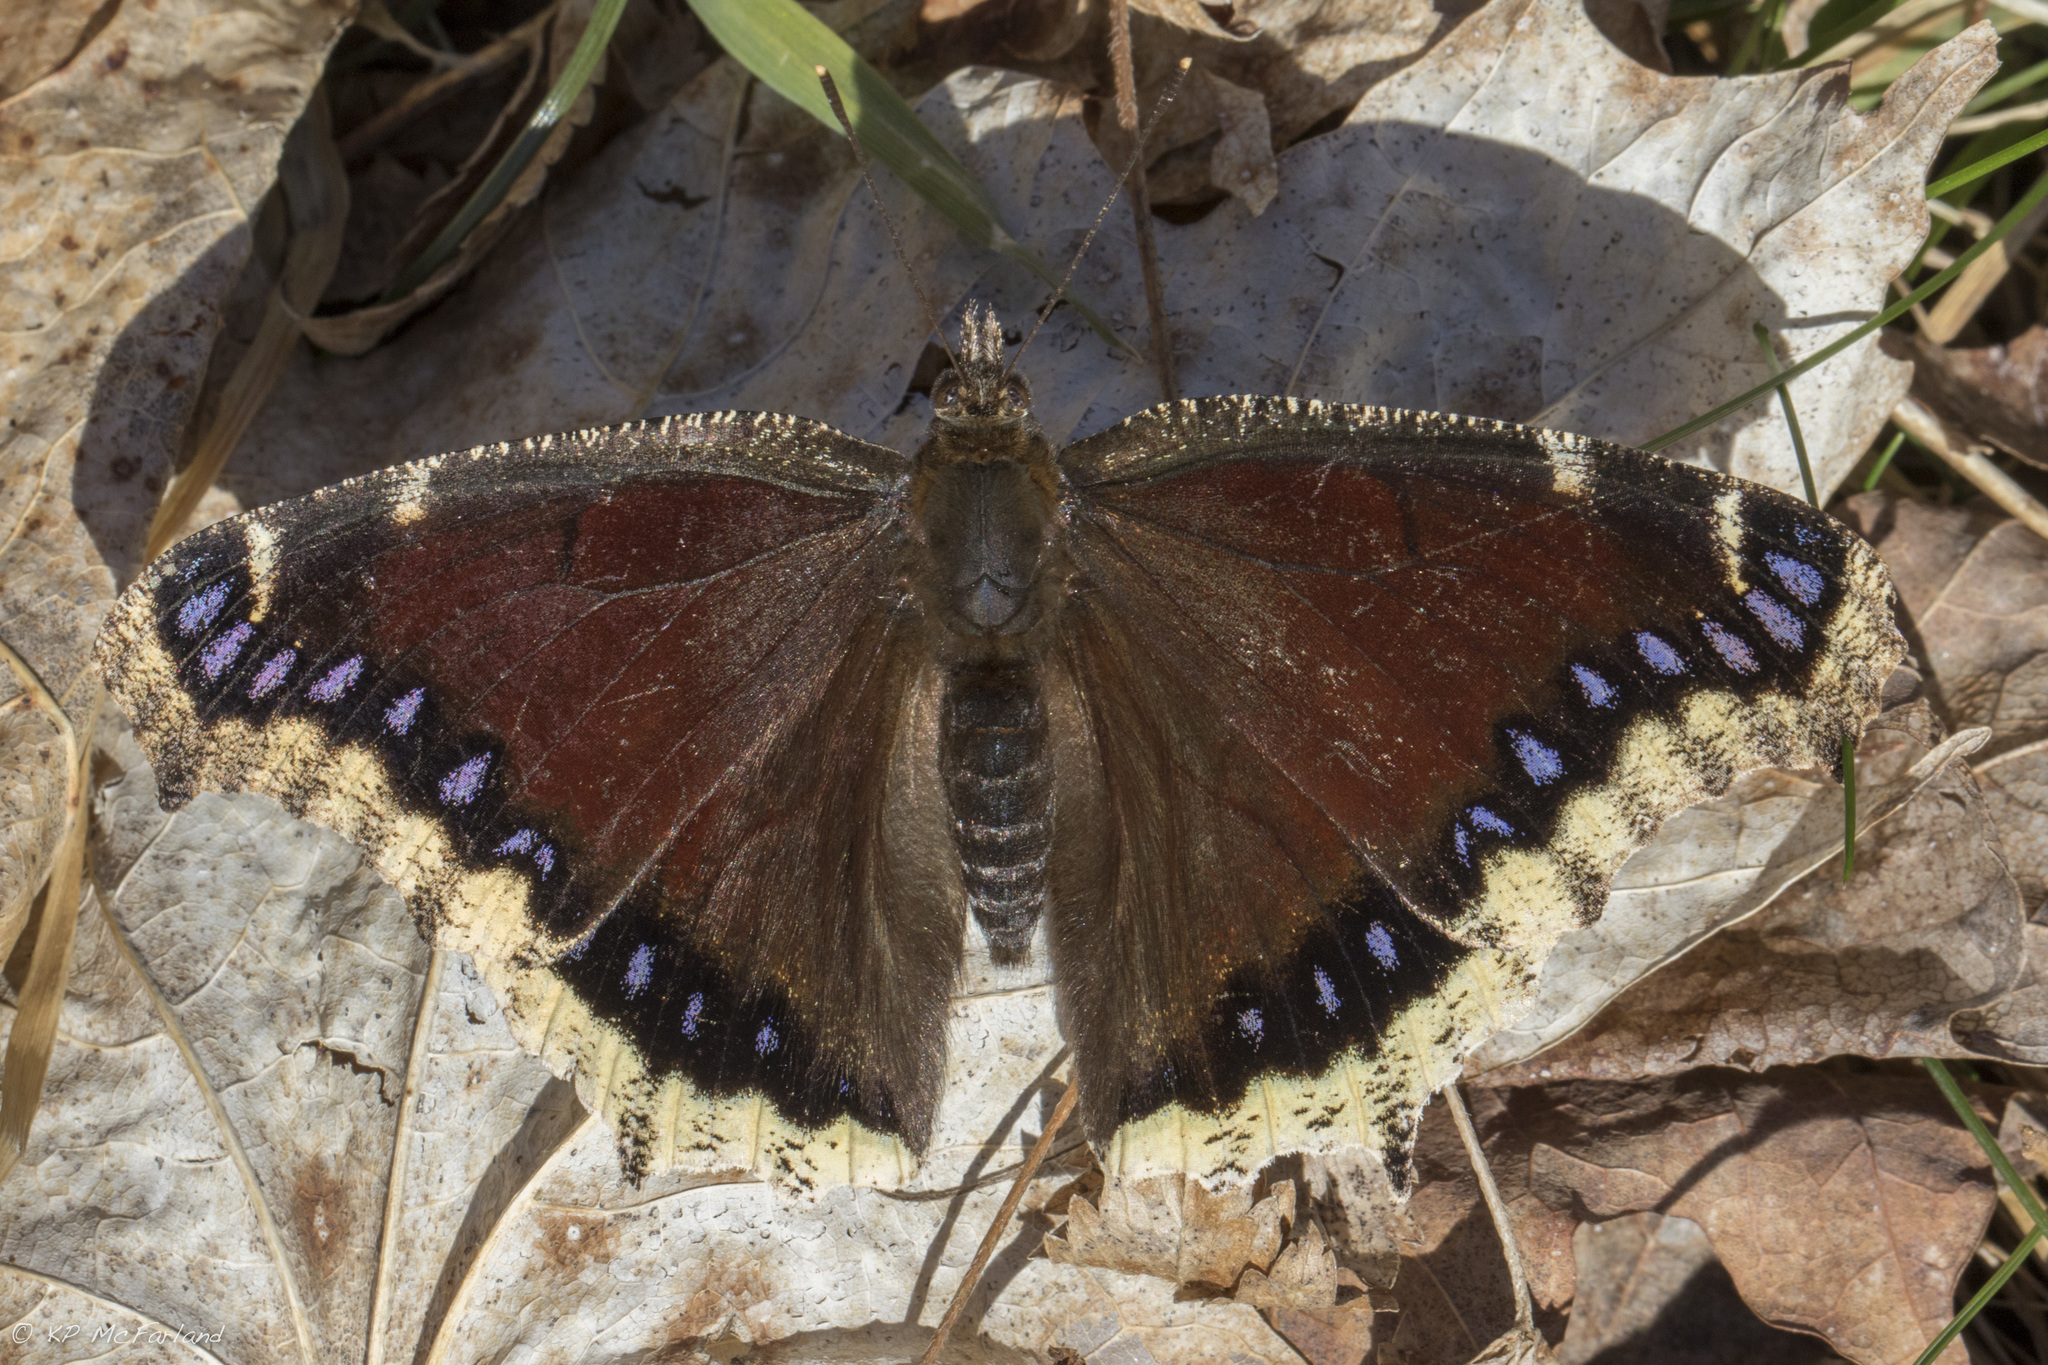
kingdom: Animalia
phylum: Arthropoda
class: Insecta
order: Lepidoptera
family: Nymphalidae
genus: Nymphalis
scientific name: Nymphalis antiopa
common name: Camberwell beauty
